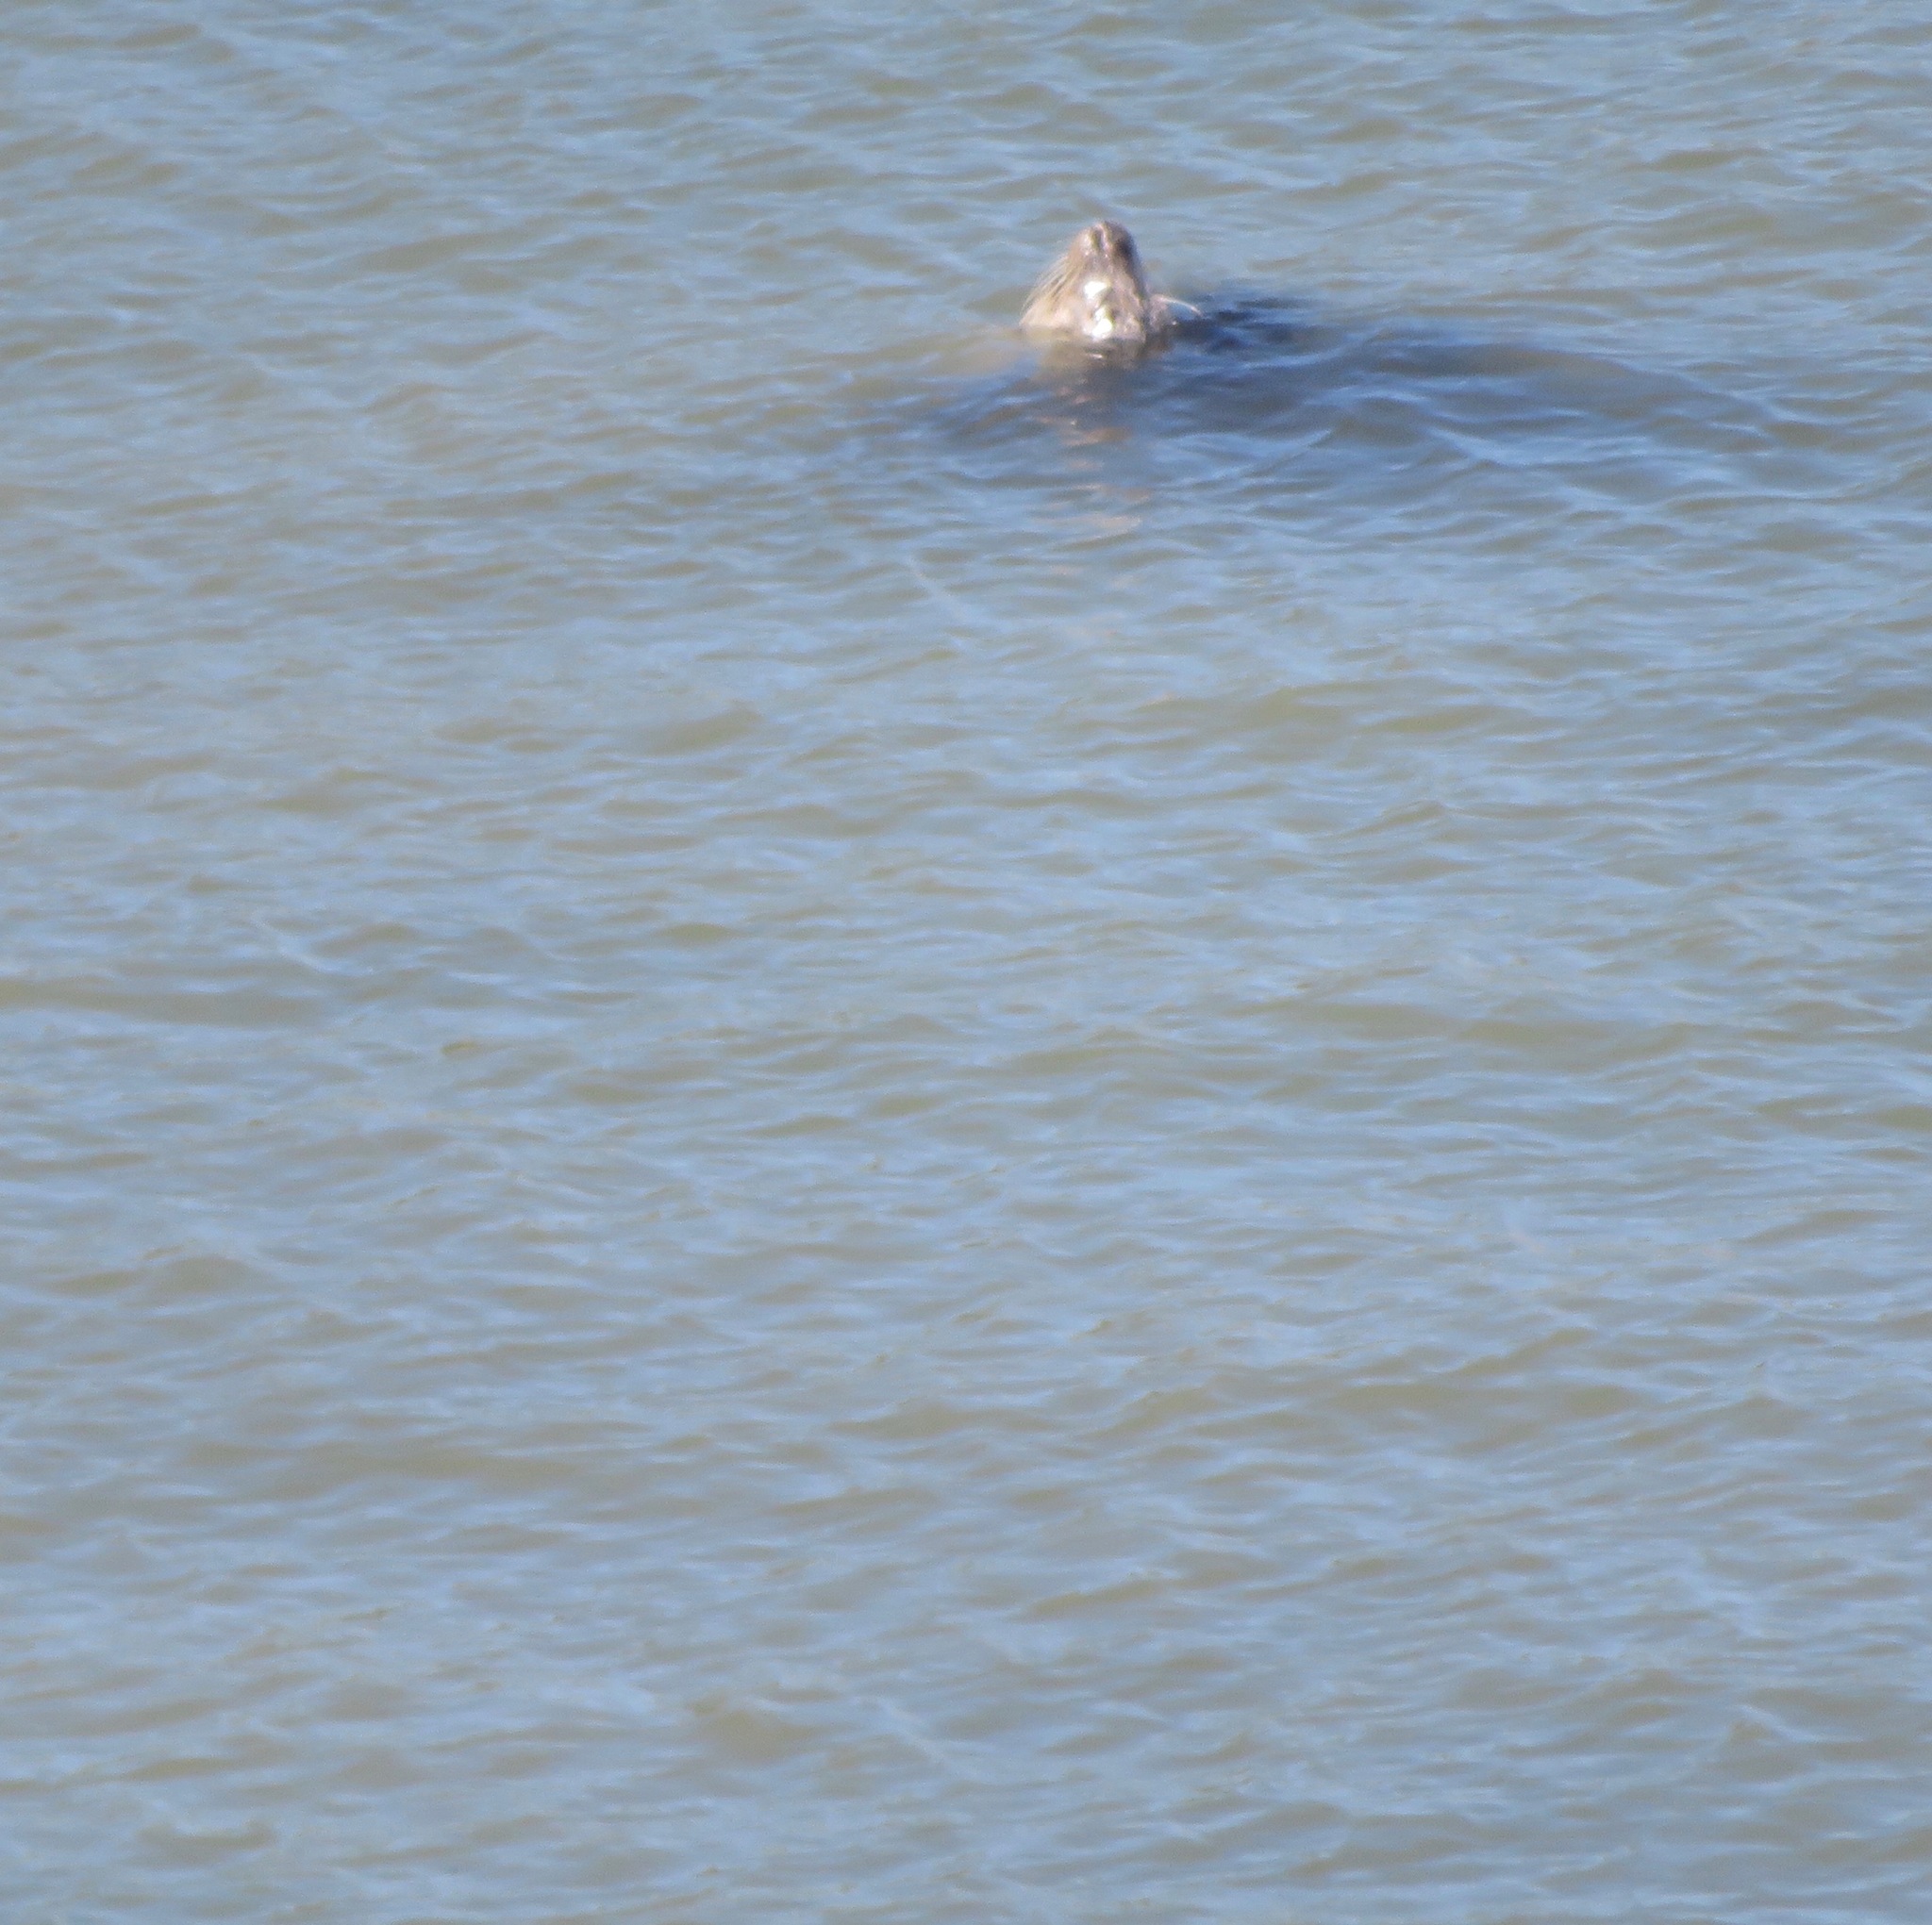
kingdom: Animalia
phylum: Chordata
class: Mammalia
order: Carnivora
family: Phocidae
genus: Phoca
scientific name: Phoca vitulina
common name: Harbor seal
